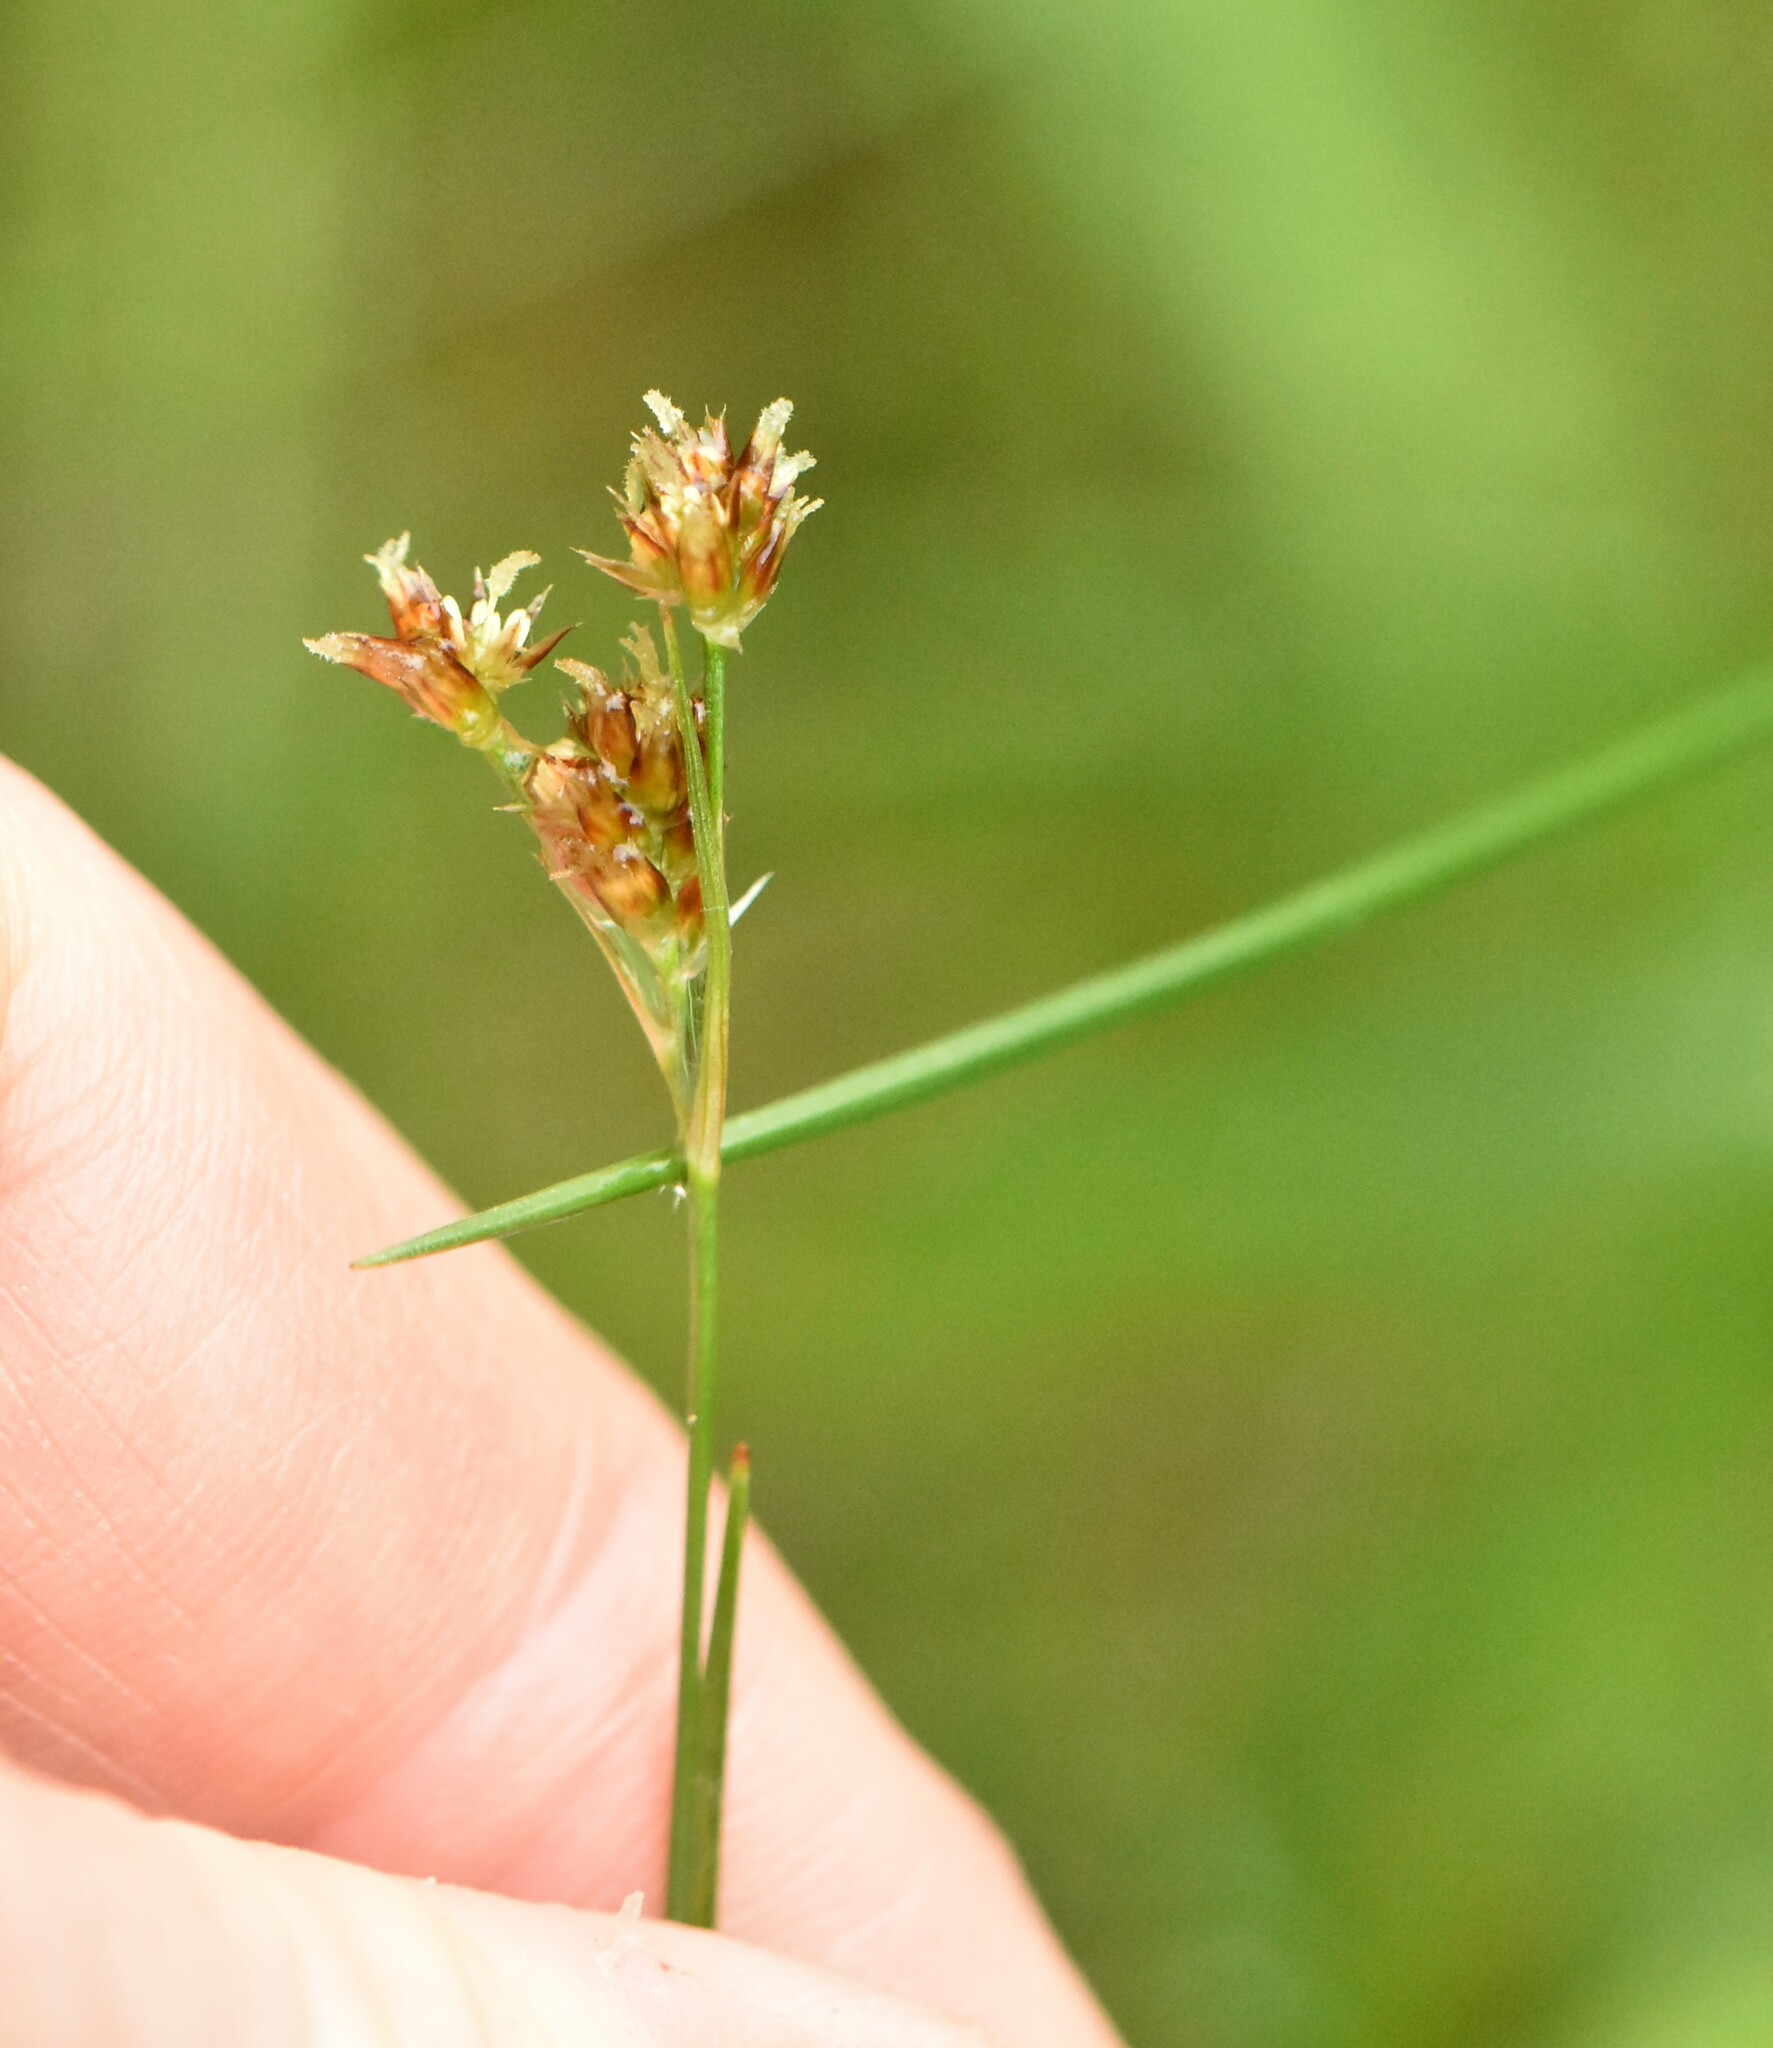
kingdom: Plantae
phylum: Tracheophyta
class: Liliopsida
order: Poales
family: Juncaceae
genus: Luzula
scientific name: Luzula pallescens
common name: Fen wood-rush
